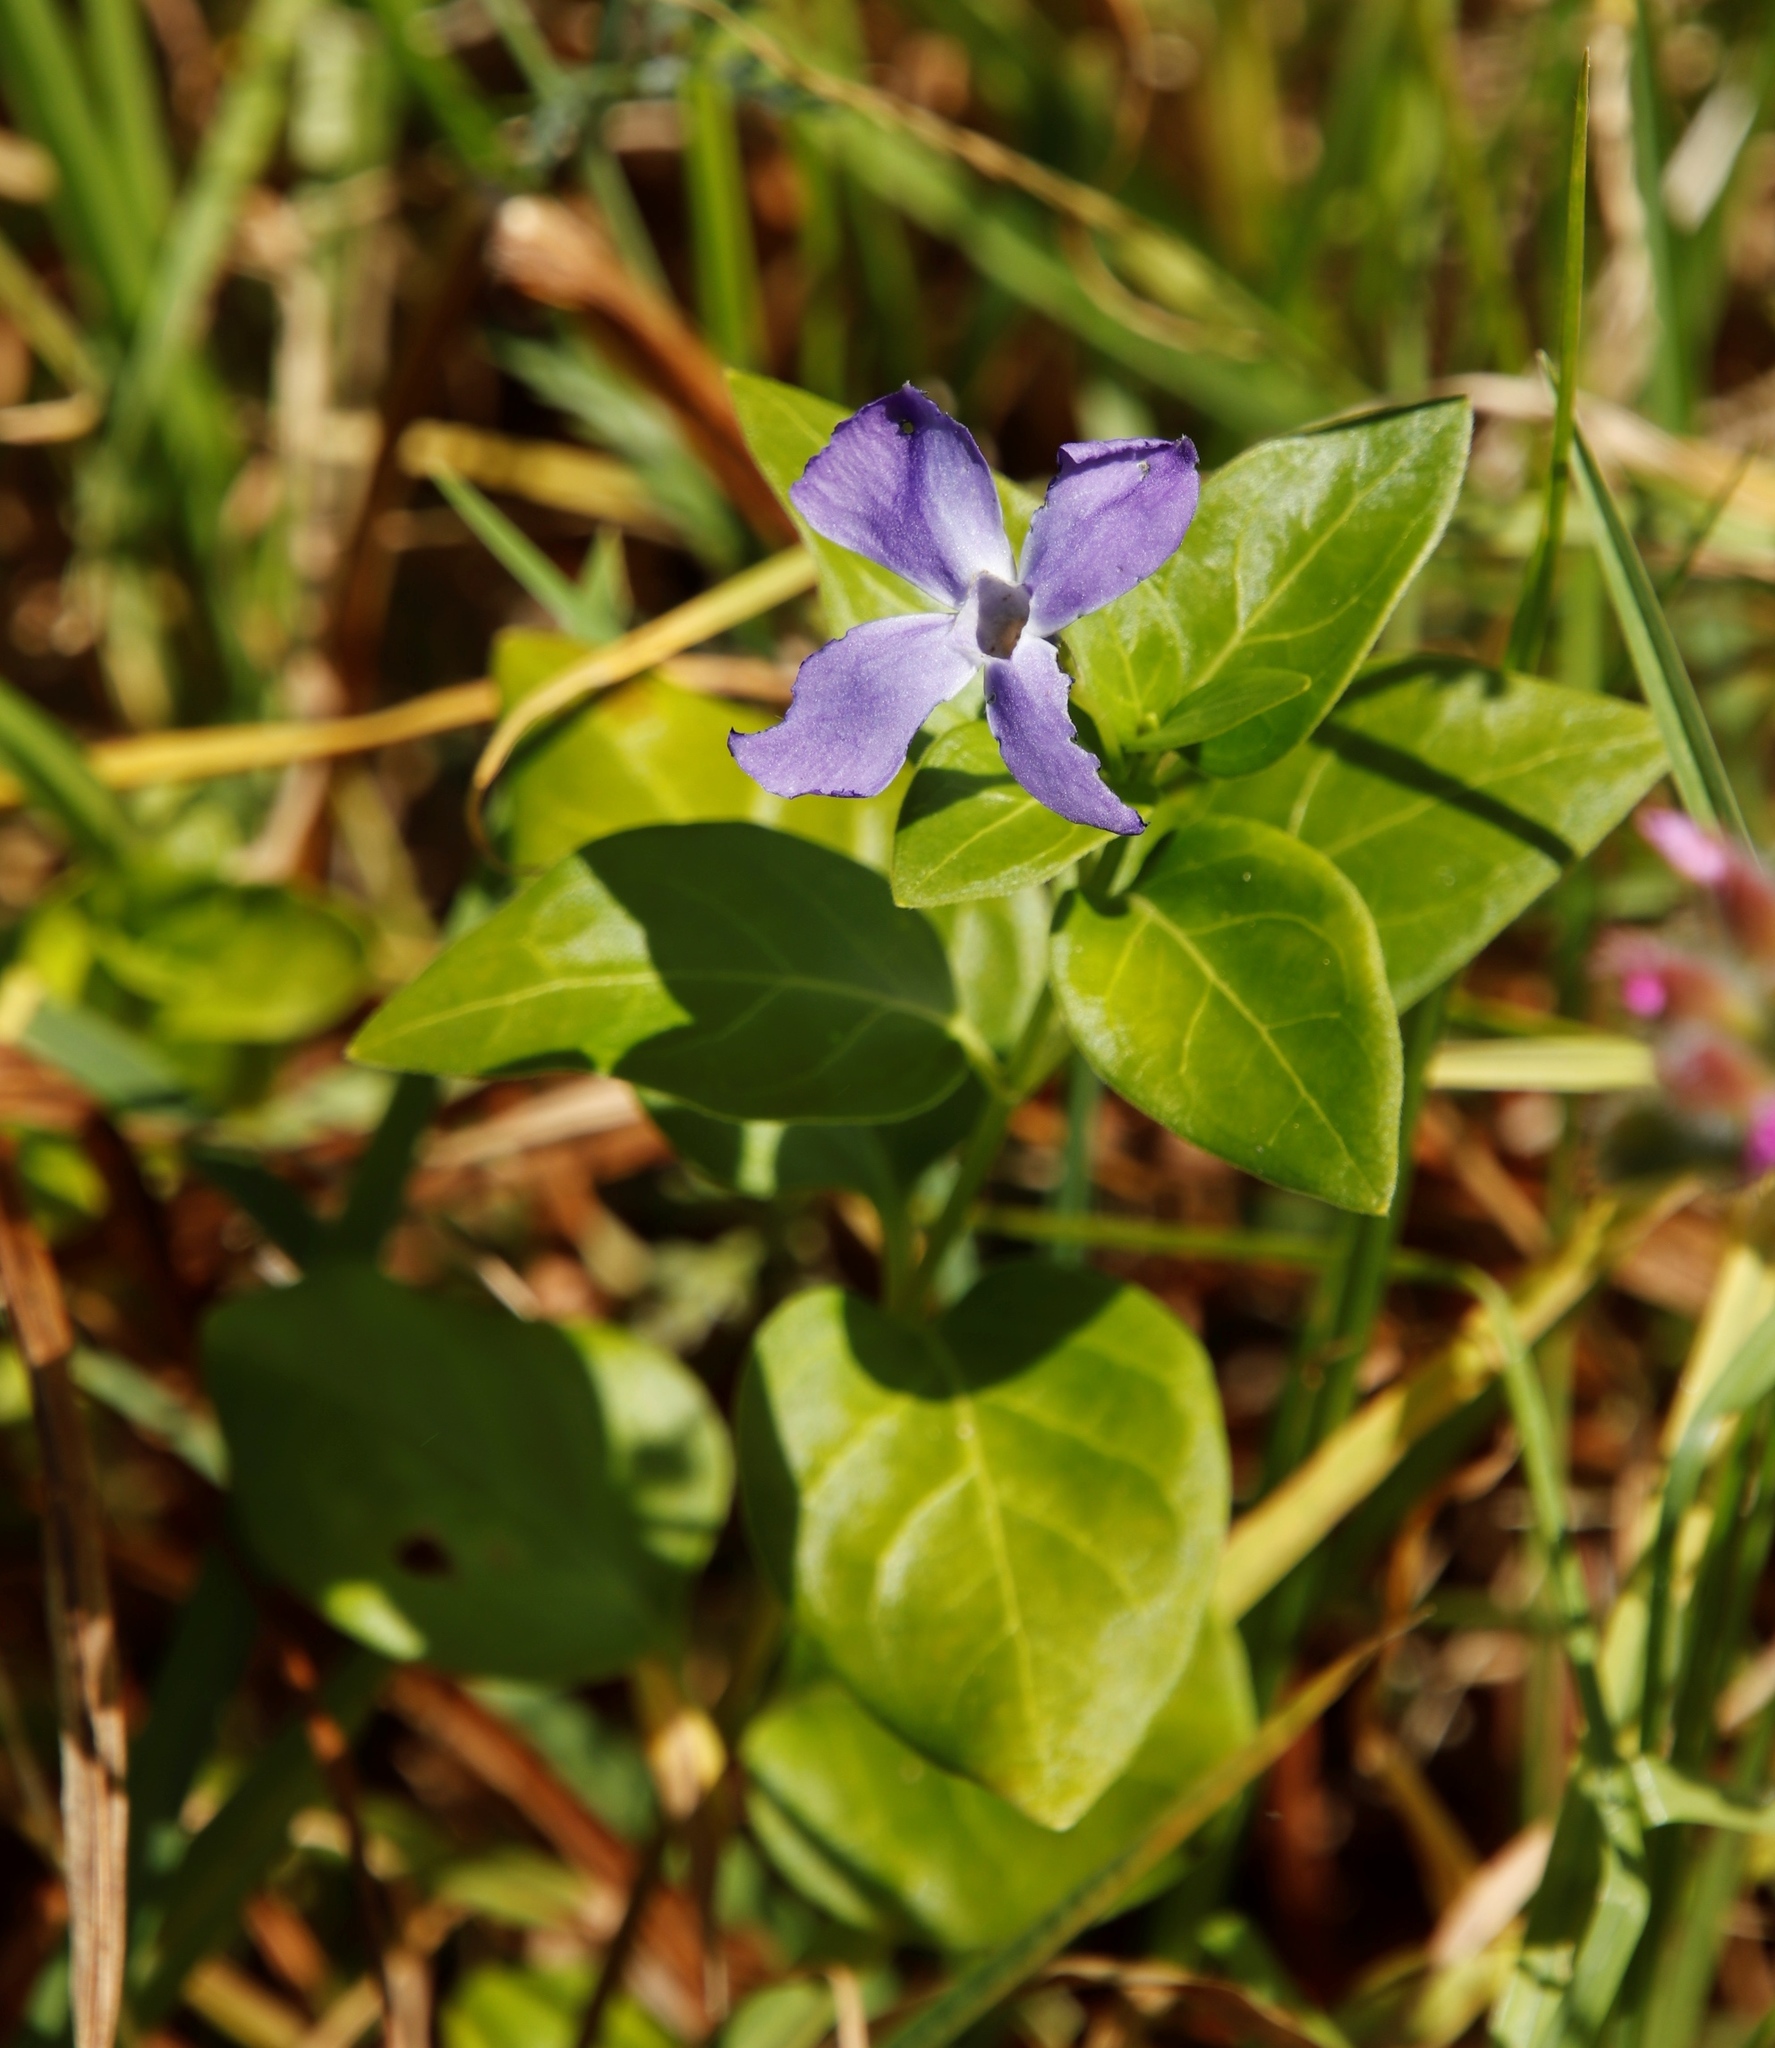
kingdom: Plantae
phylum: Tracheophyta
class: Magnoliopsida
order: Gentianales
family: Apocynaceae
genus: Vinca
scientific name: Vinca major
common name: Greater periwinkle
